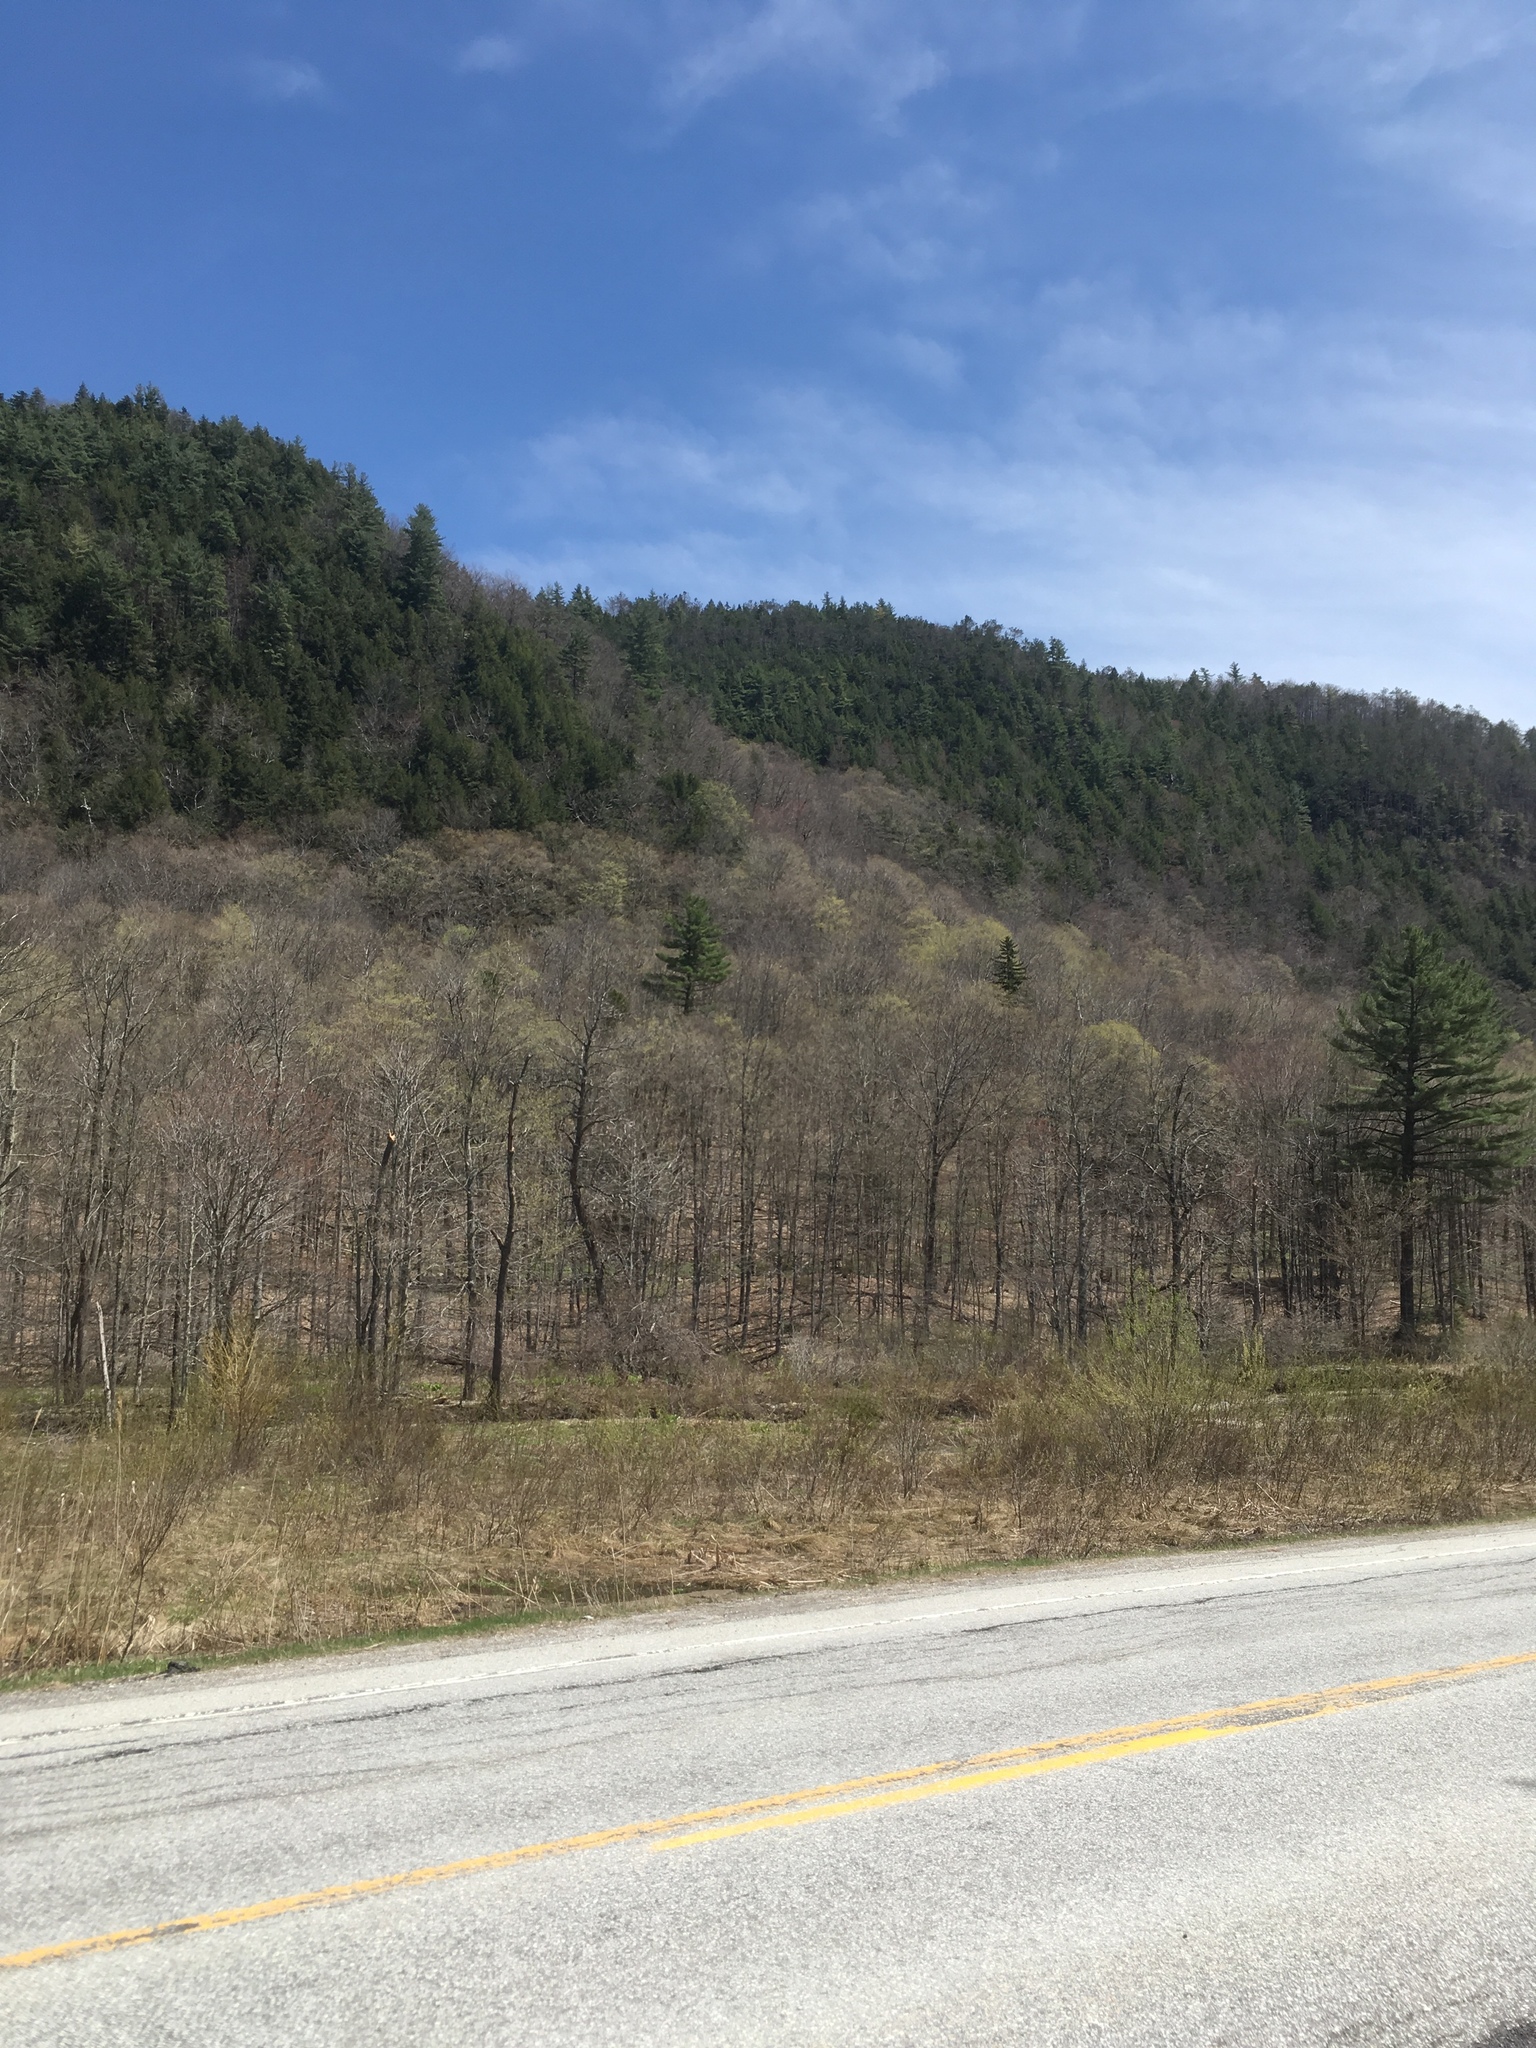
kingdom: Plantae
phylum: Tracheophyta
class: Pinopsida
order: Pinales
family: Pinaceae
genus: Pinus
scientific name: Pinus strobus
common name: Weymouth pine
